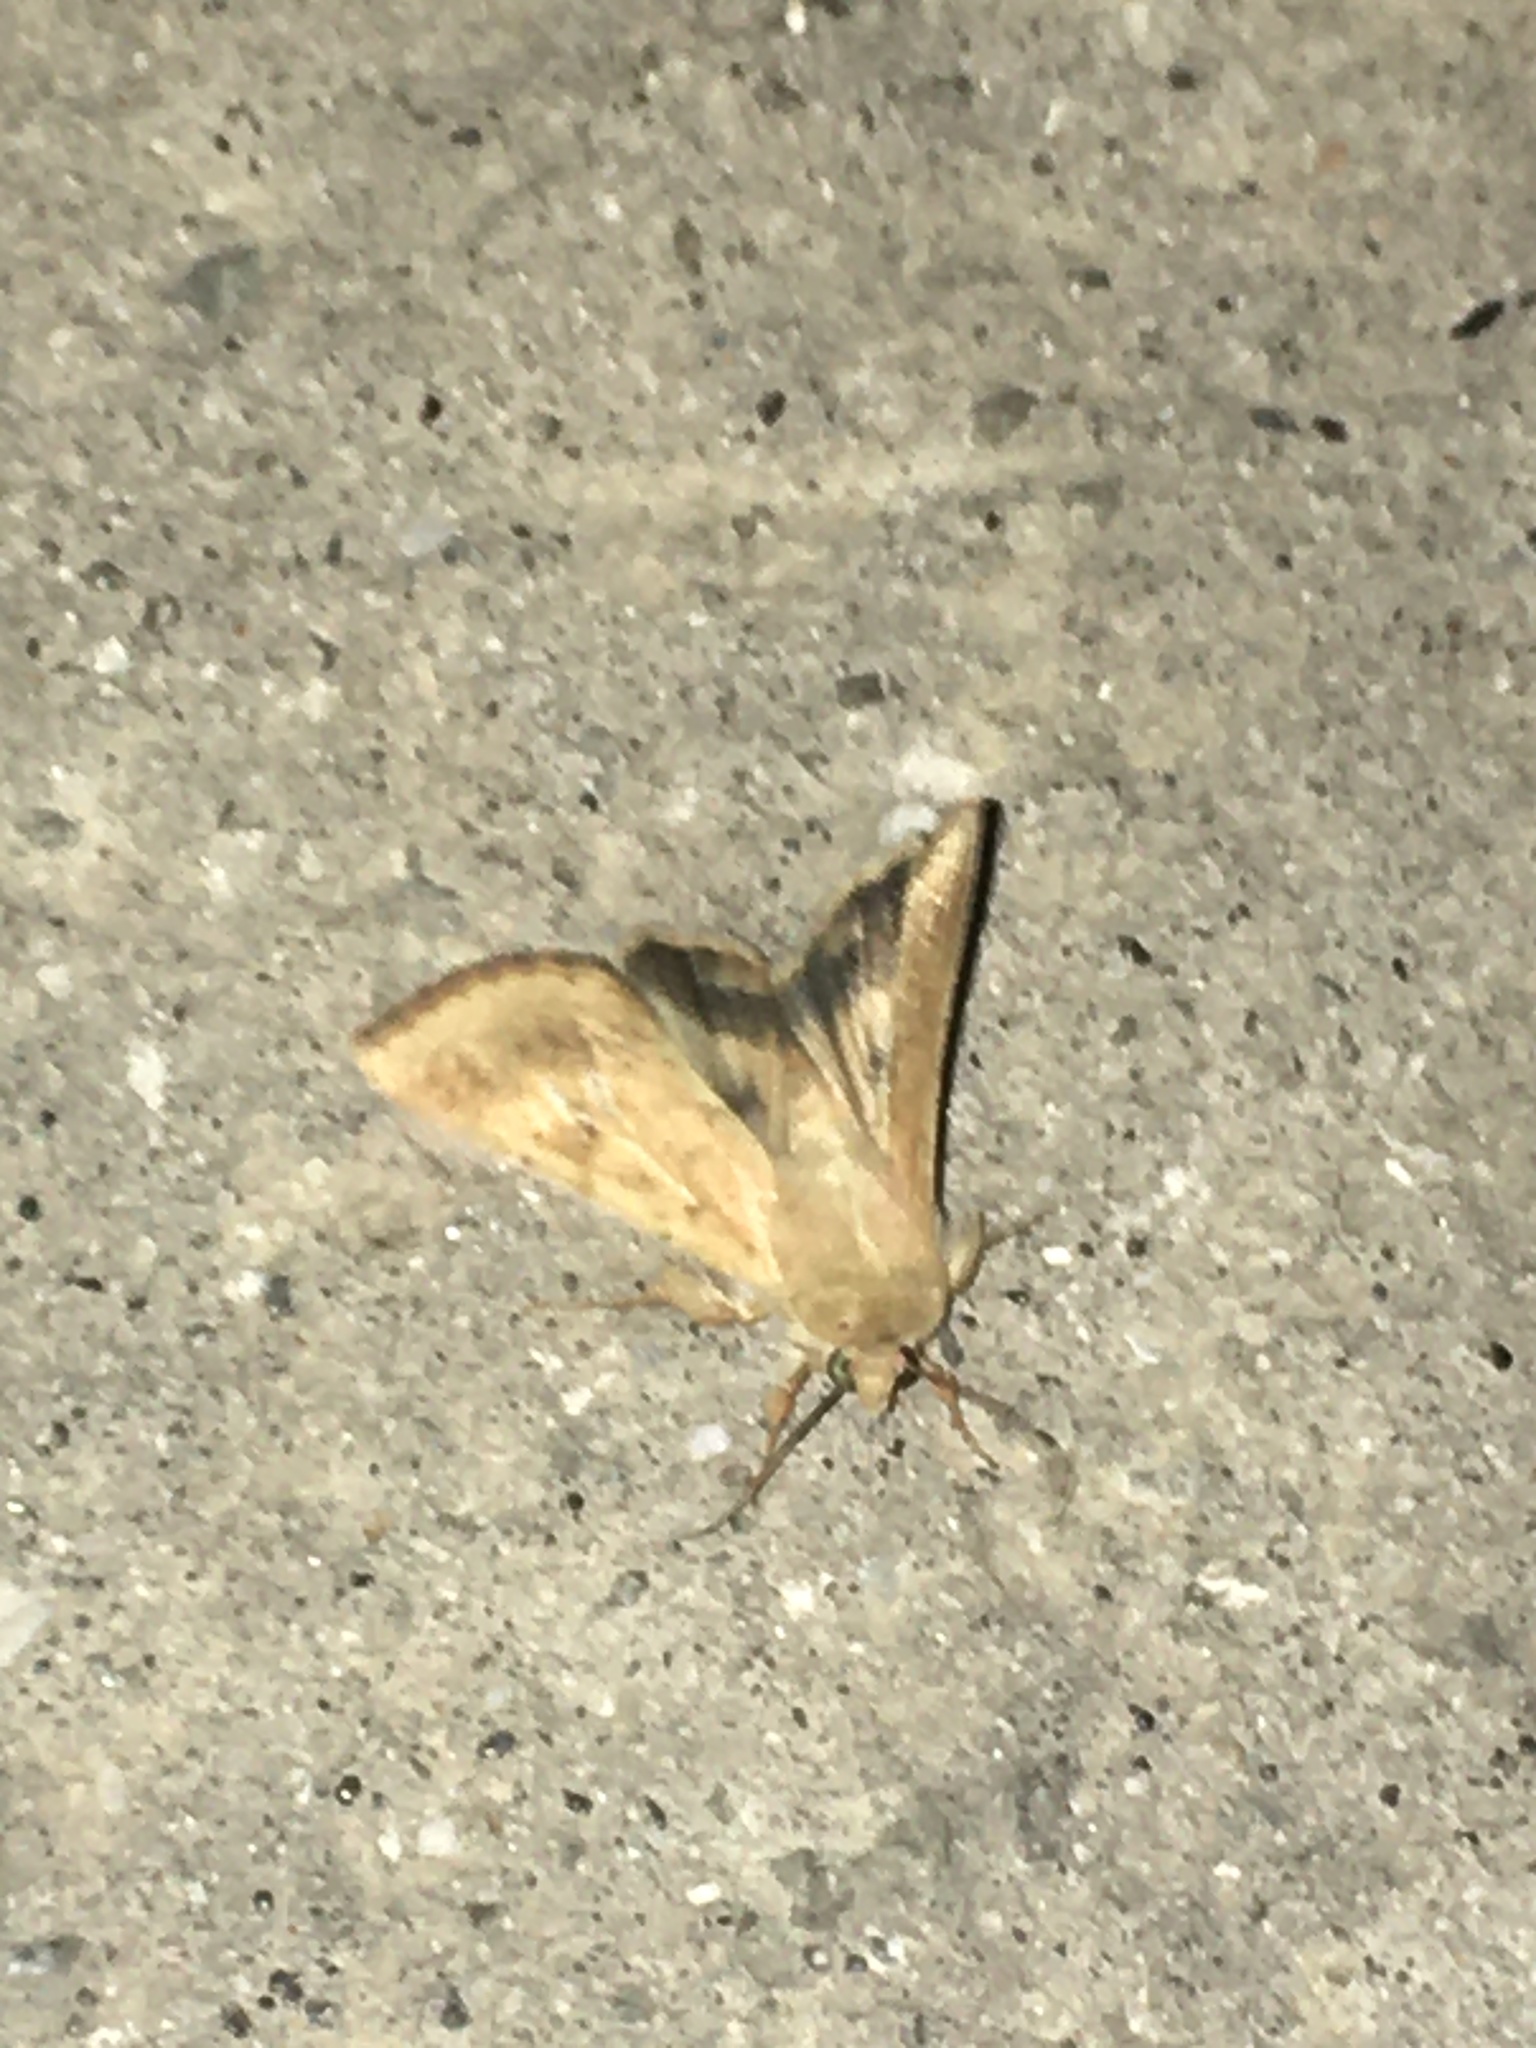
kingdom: Animalia
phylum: Arthropoda
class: Insecta
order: Lepidoptera
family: Noctuidae
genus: Helicoverpa
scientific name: Helicoverpa armigera
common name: Cotton bollworm
